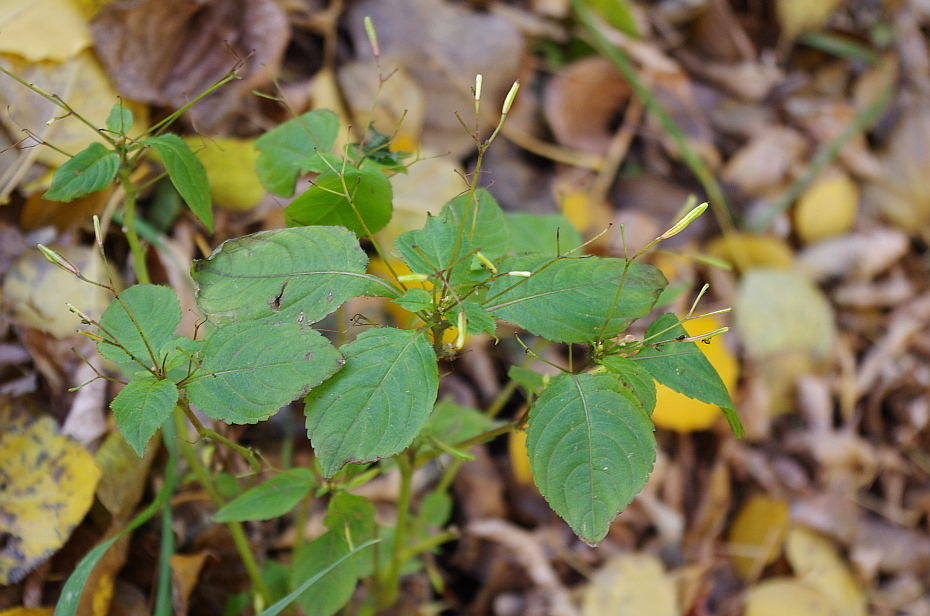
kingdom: Plantae
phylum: Tracheophyta
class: Magnoliopsida
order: Ericales
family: Balsaminaceae
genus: Impatiens
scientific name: Impatiens parviflora
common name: Small balsam
